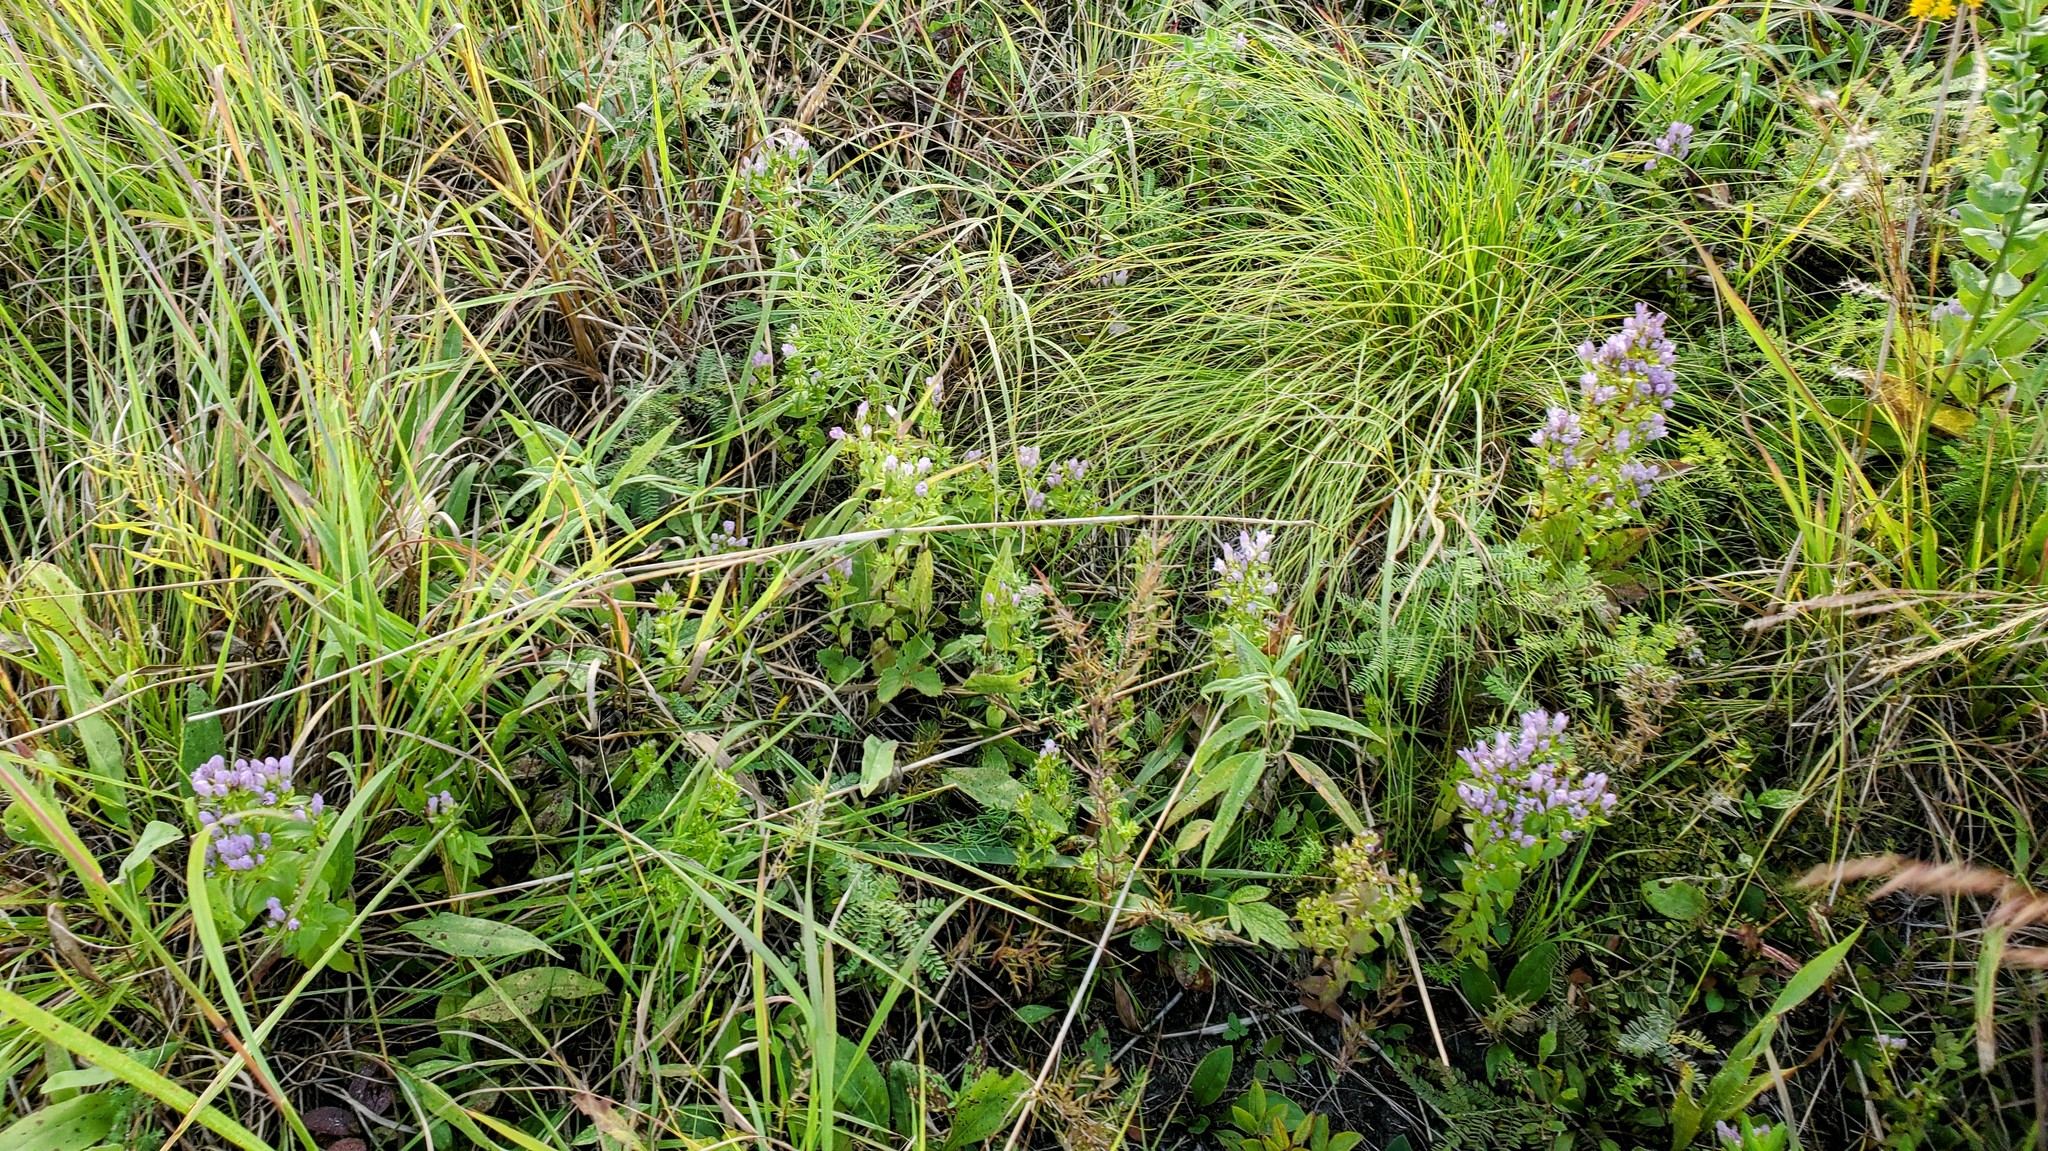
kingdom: Plantae
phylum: Tracheophyta
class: Liliopsida
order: Poales
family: Poaceae
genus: Sporobolus
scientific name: Sporobolus heterolepis
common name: Prairie dropseed
